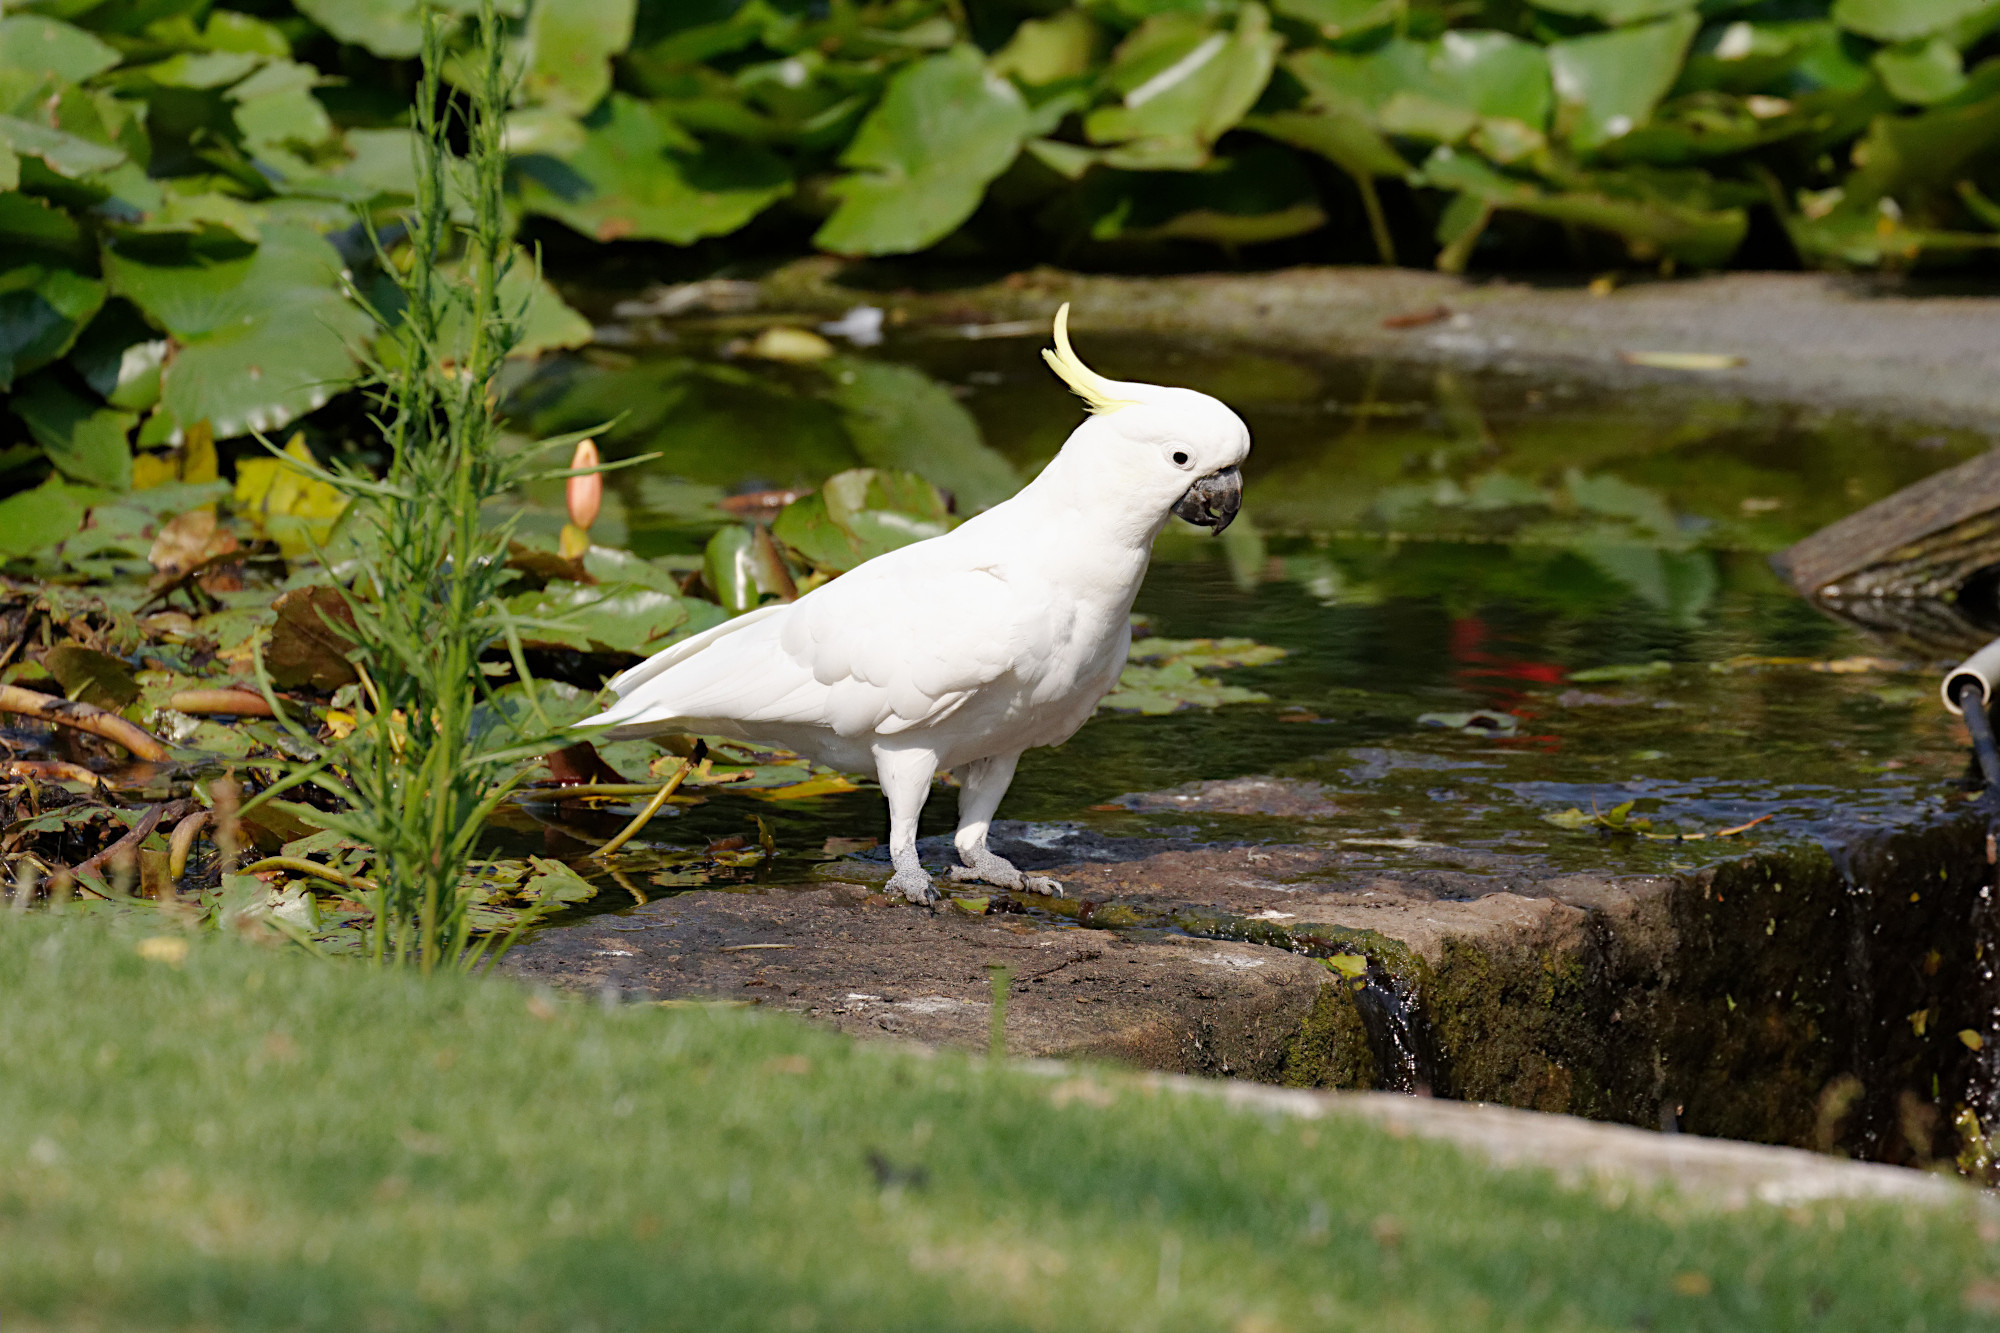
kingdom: Animalia
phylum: Chordata
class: Aves
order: Psittaciformes
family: Psittacidae
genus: Cacatua
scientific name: Cacatua galerita
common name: Sulphur-crested cockatoo
